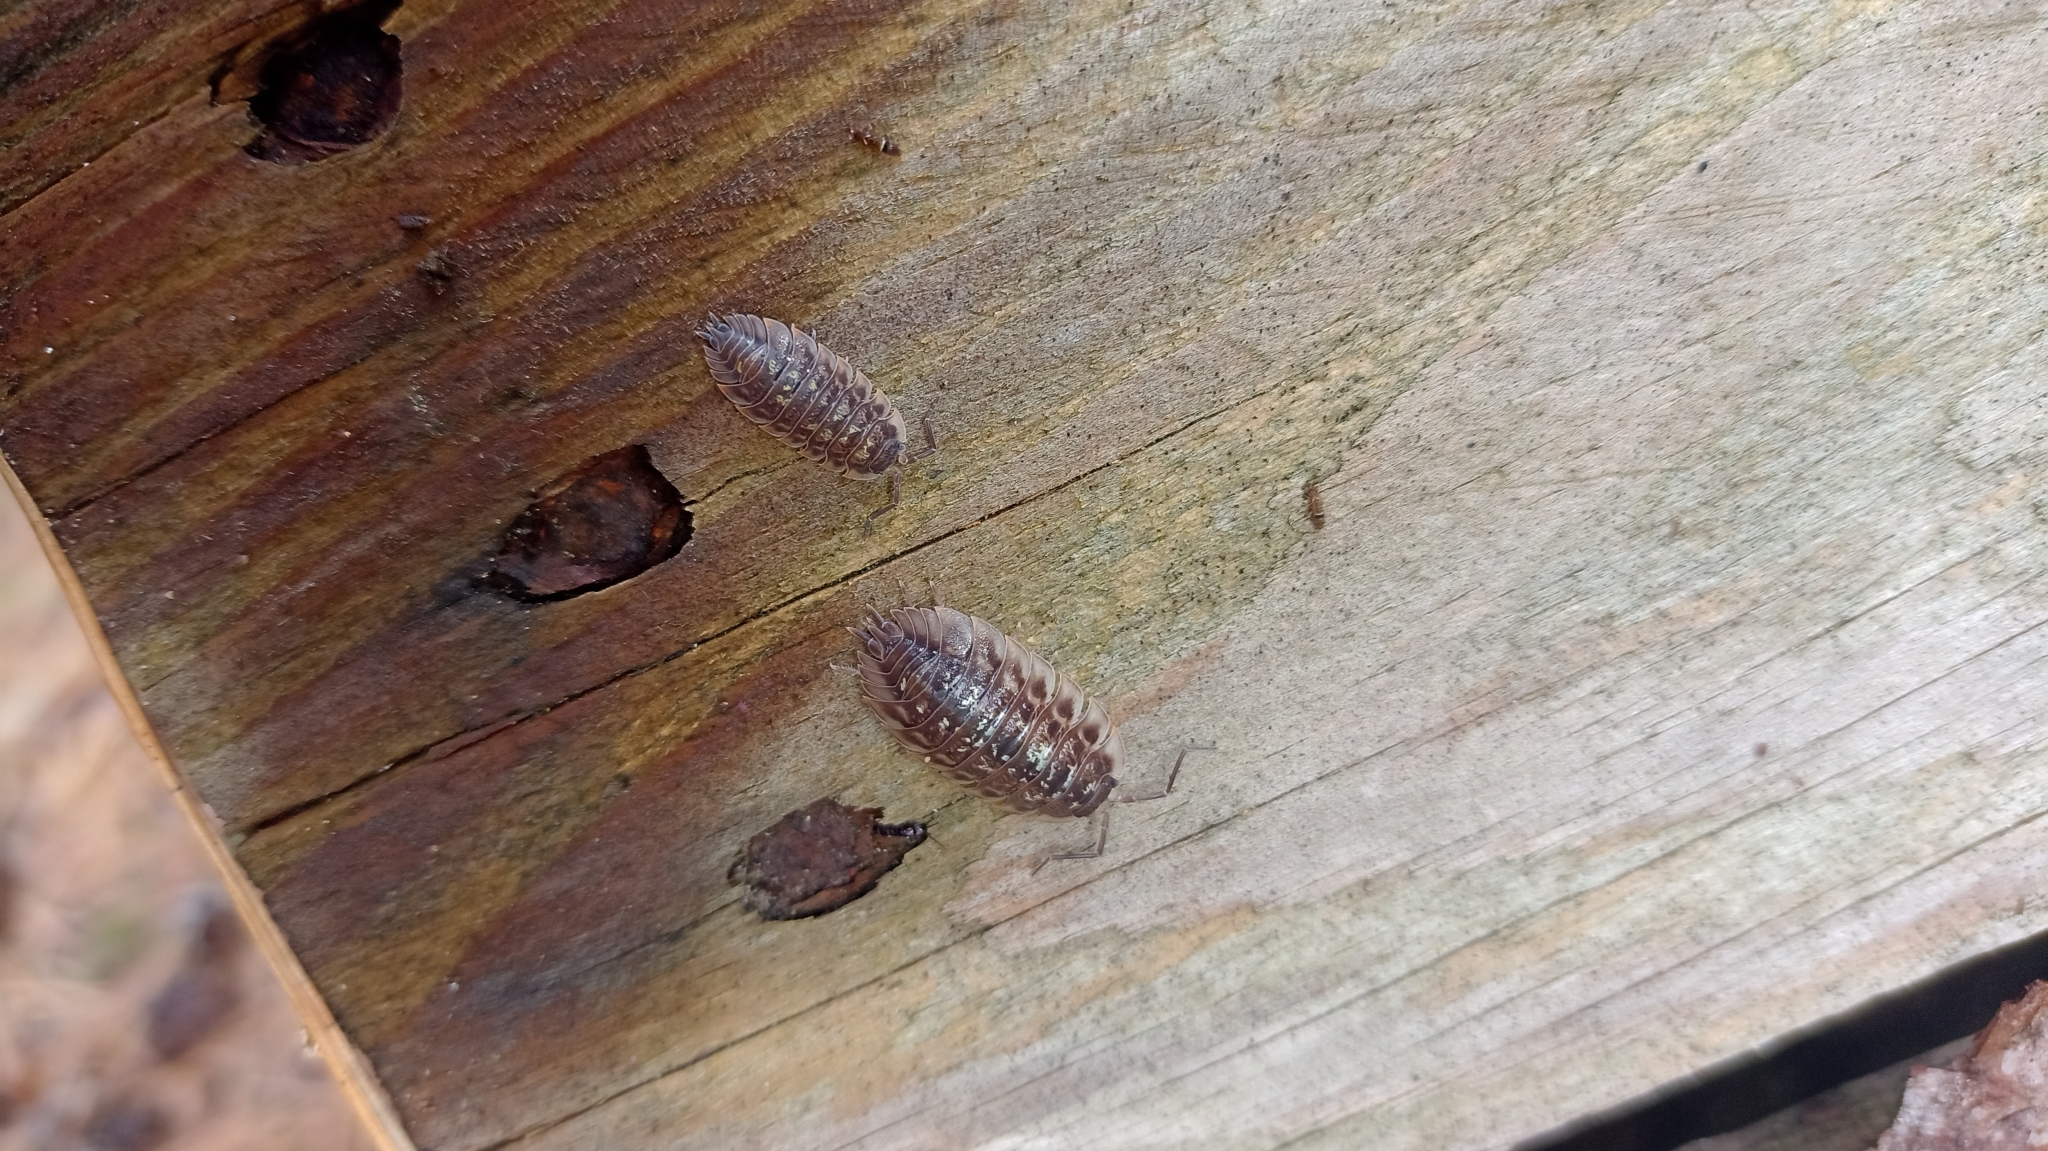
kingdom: Animalia
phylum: Arthropoda
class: Malacostraca
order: Isopoda
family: Oniscidae
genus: Oniscus
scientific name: Oniscus asellus
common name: Common shiny woodlouse
